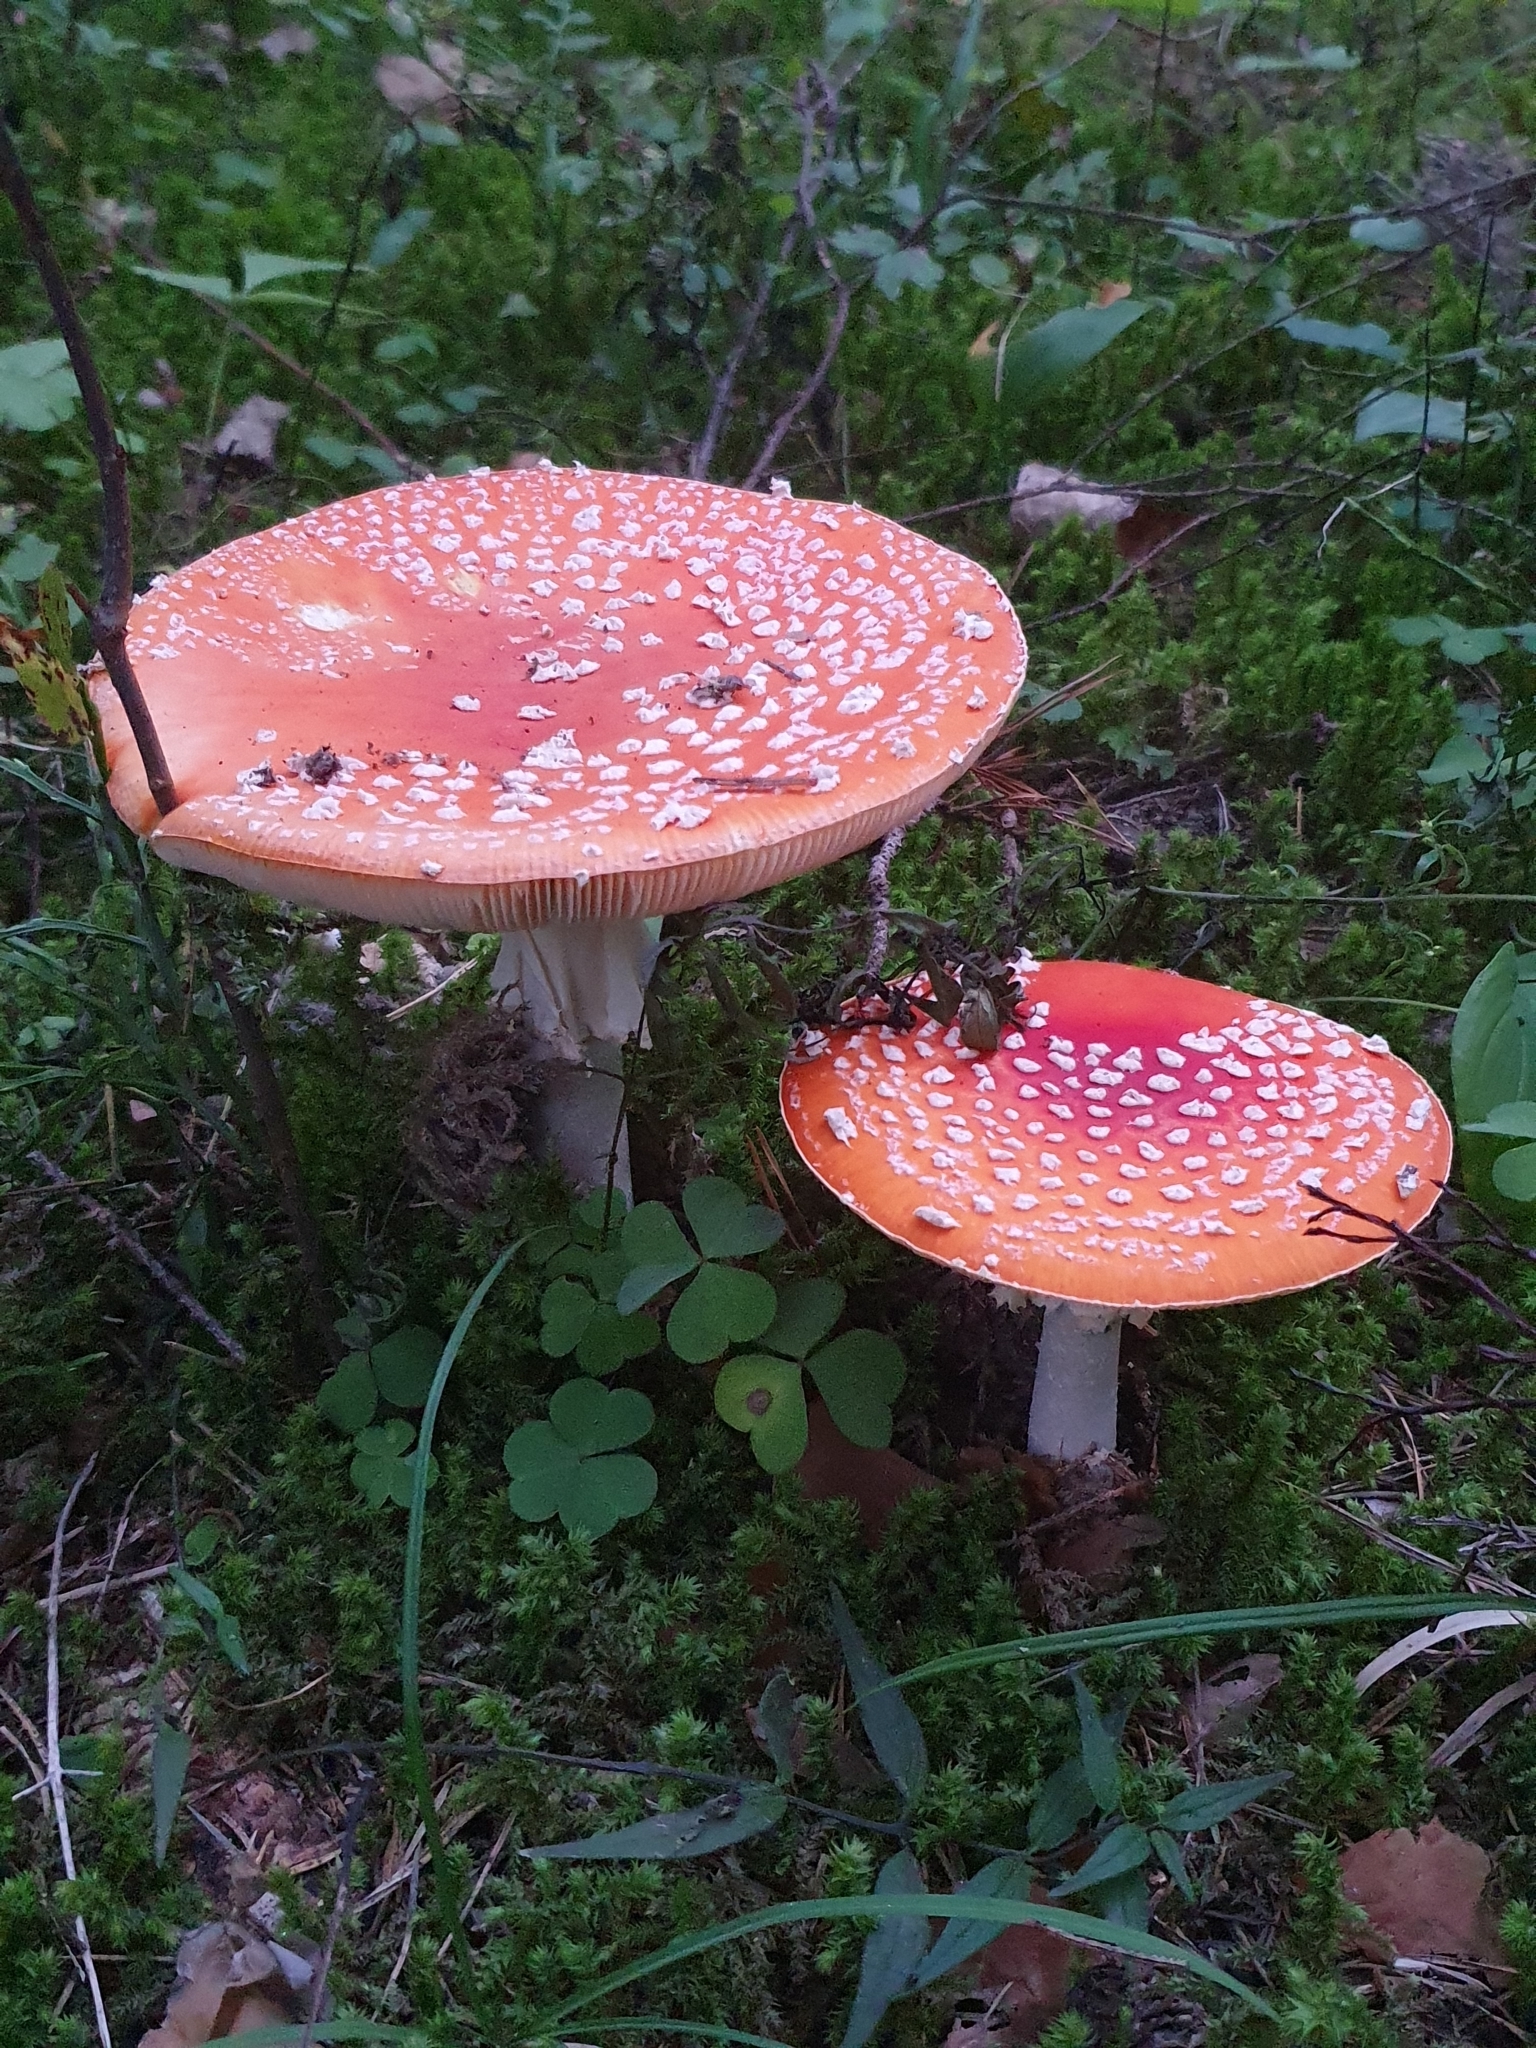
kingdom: Fungi
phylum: Basidiomycota
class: Agaricomycetes
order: Agaricales
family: Amanitaceae
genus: Amanita
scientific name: Amanita muscaria
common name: Fly agaric
